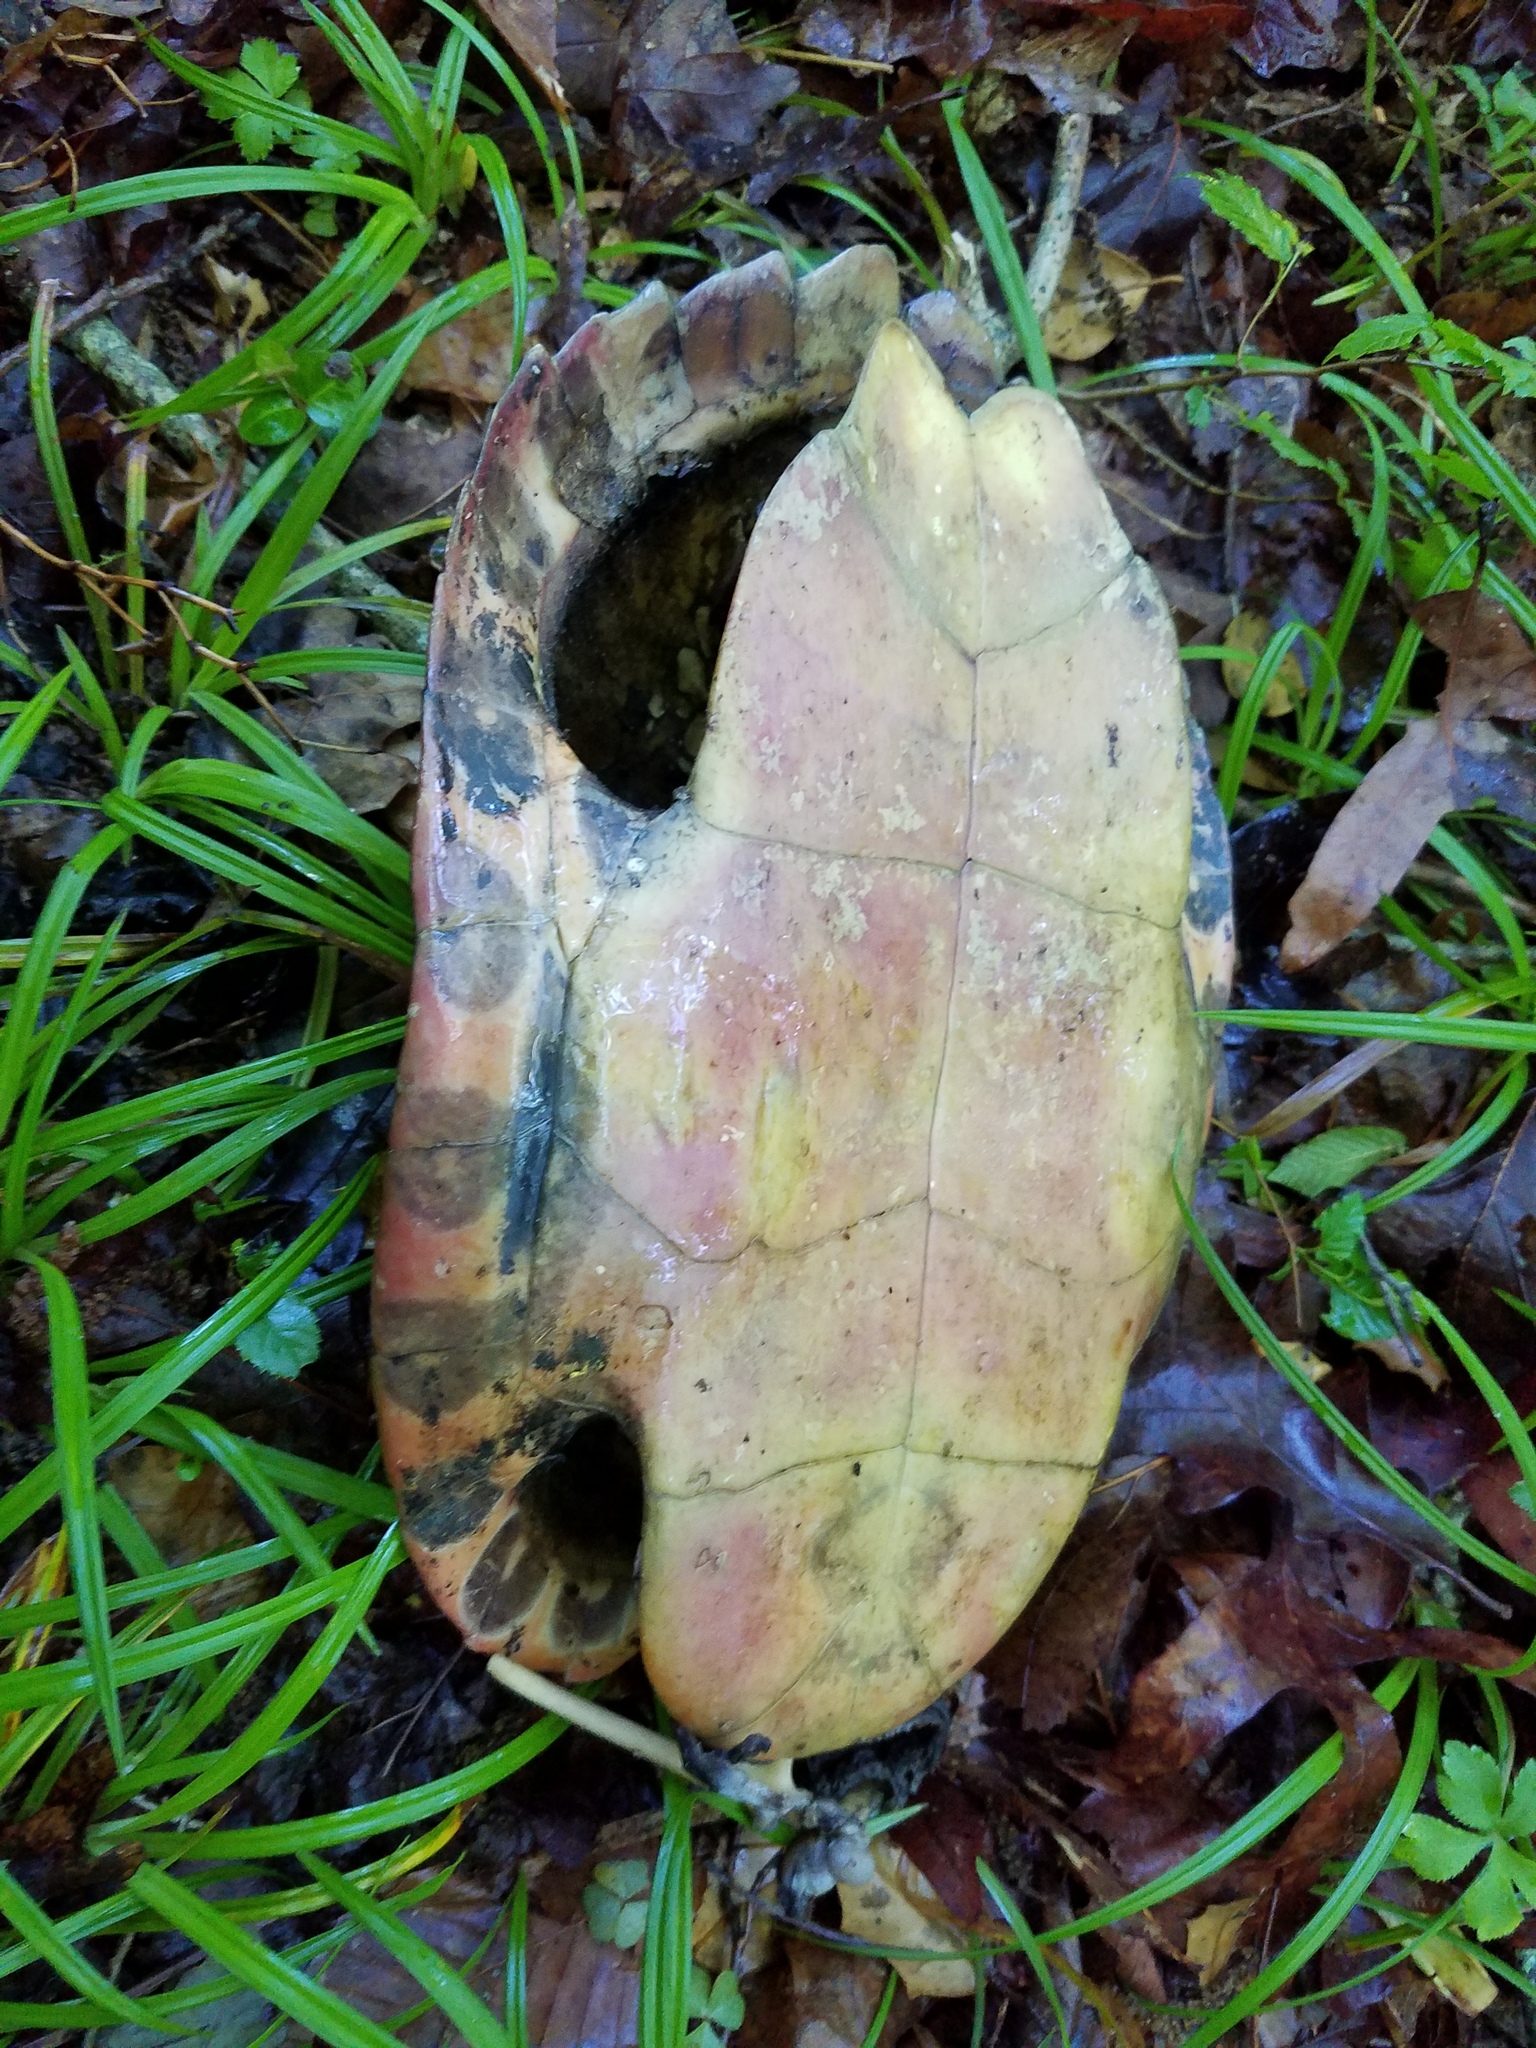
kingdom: Animalia
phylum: Chordata
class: Testudines
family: Emydidae
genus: Pseudemys
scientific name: Pseudemys concinna
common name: Eastern river cooter
